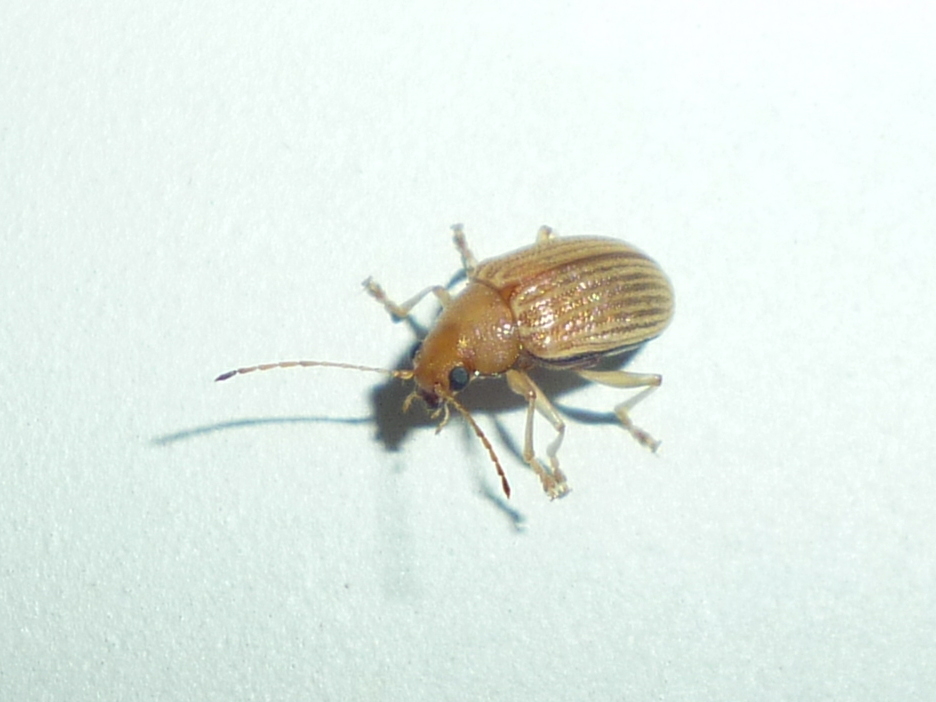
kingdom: Animalia
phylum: Arthropoda
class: Insecta
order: Coleoptera
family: Chrysomelidae
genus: Colaspis
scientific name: Colaspis brunnea
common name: Grape colaspis
